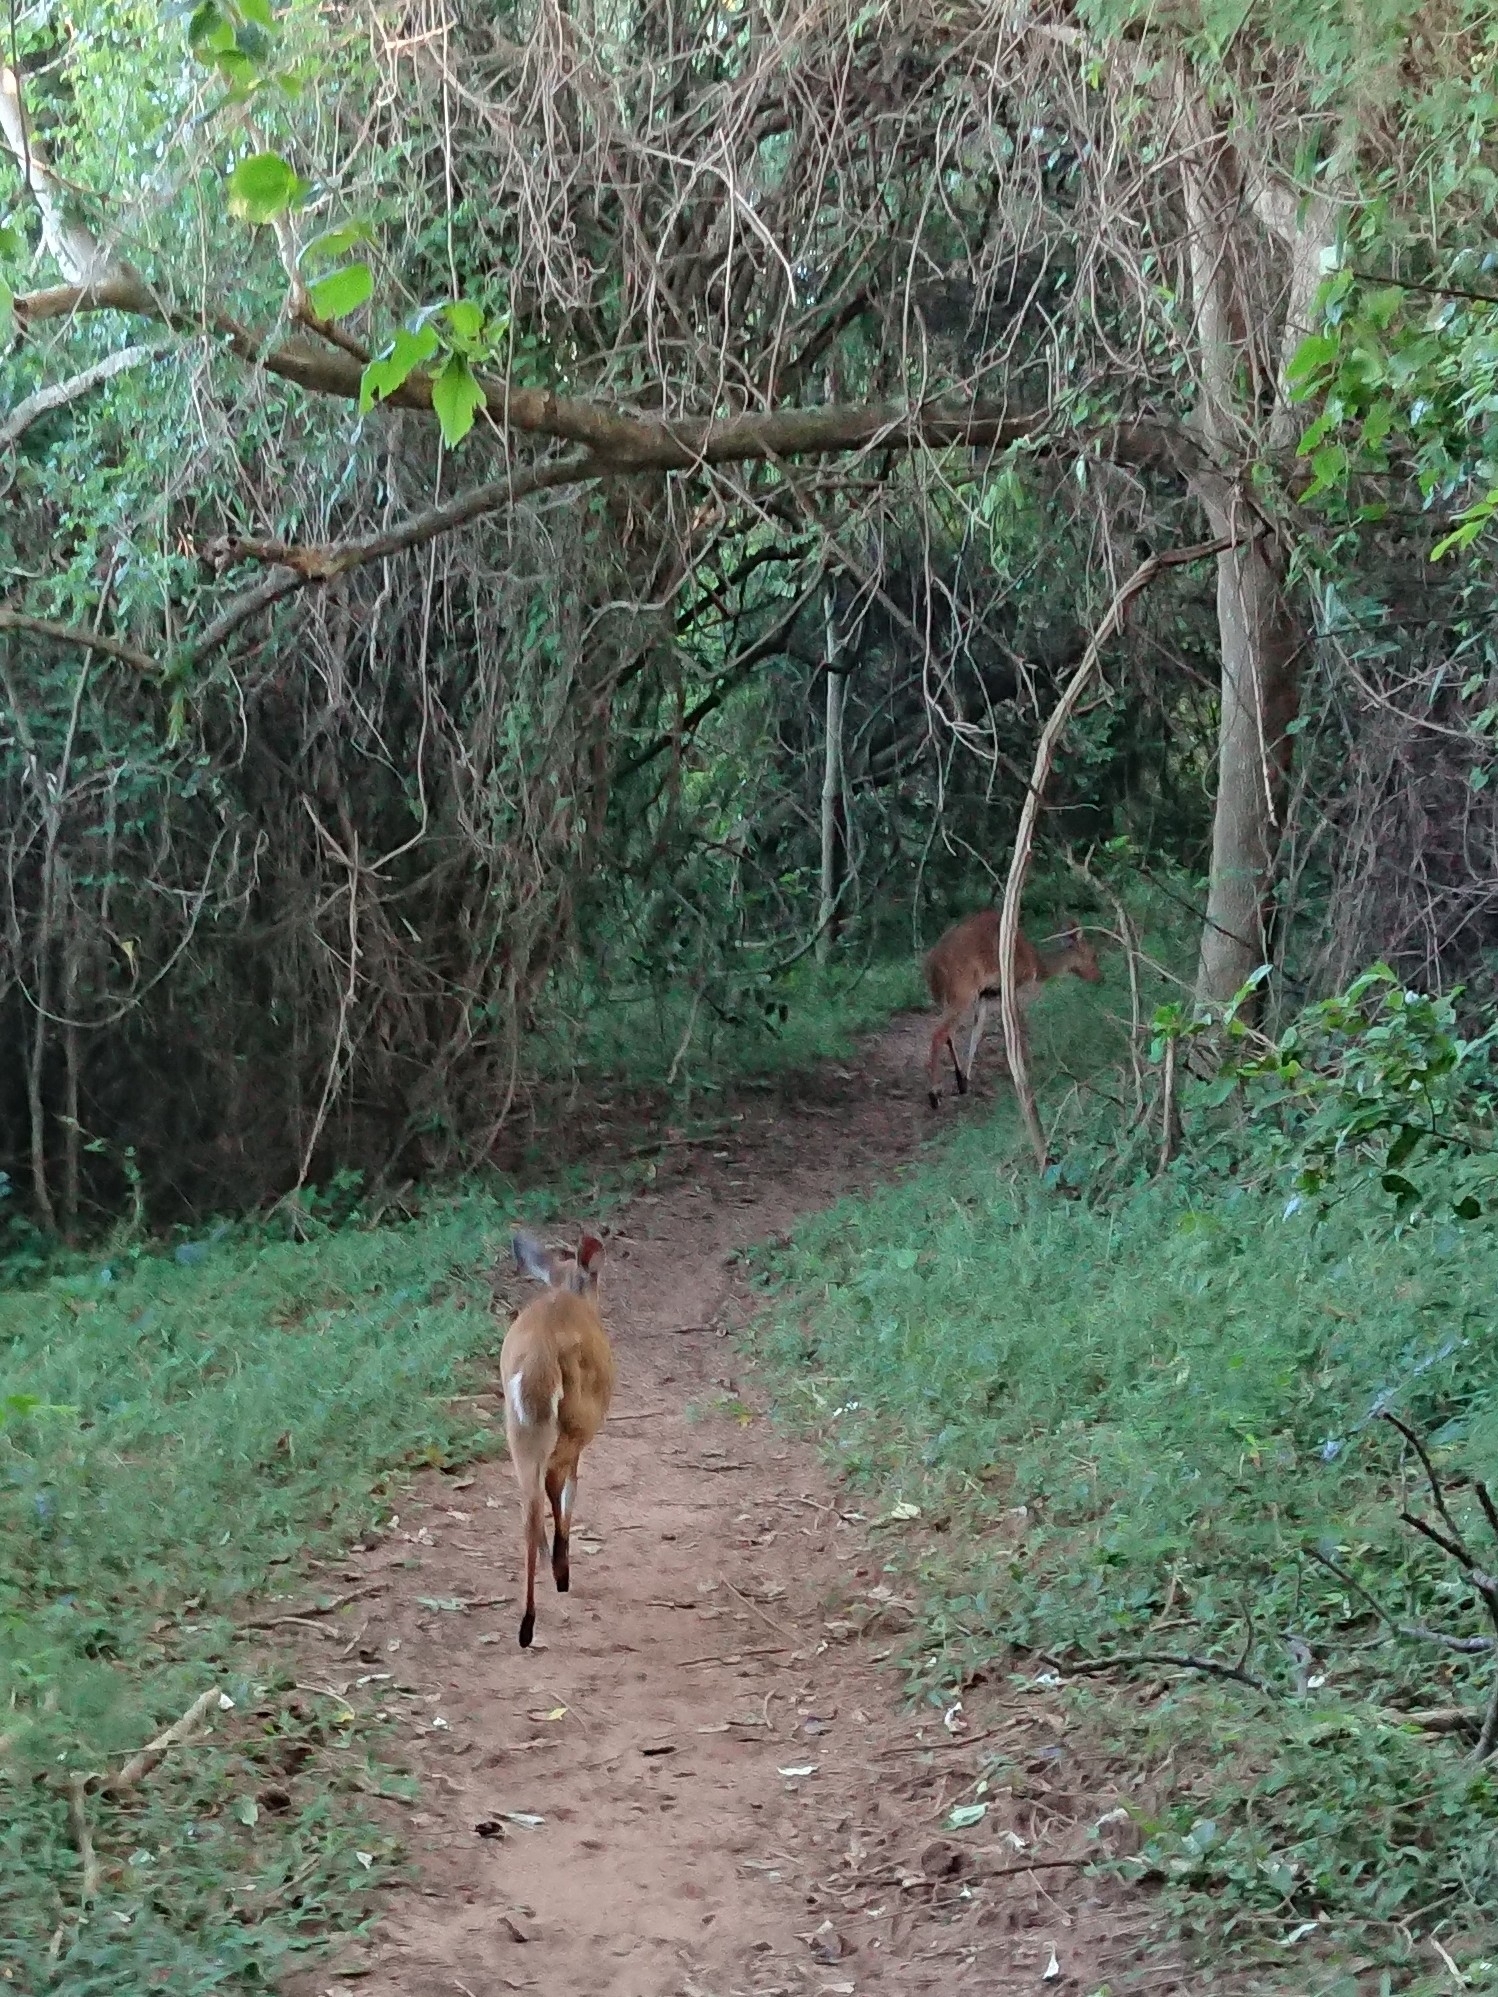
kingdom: Animalia
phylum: Chordata
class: Mammalia
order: Artiodactyla
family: Bovidae
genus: Tragelaphus
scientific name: Tragelaphus scriptus
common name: Bushbuck
